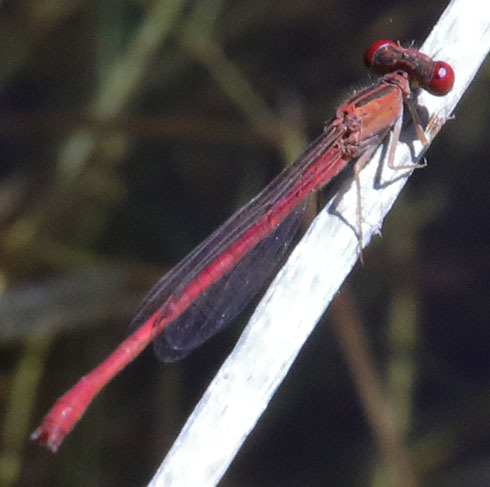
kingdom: Animalia
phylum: Arthropoda
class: Insecta
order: Odonata
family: Coenagrionidae
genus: Telebasis
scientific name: Telebasis salva
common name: Desert firetail
